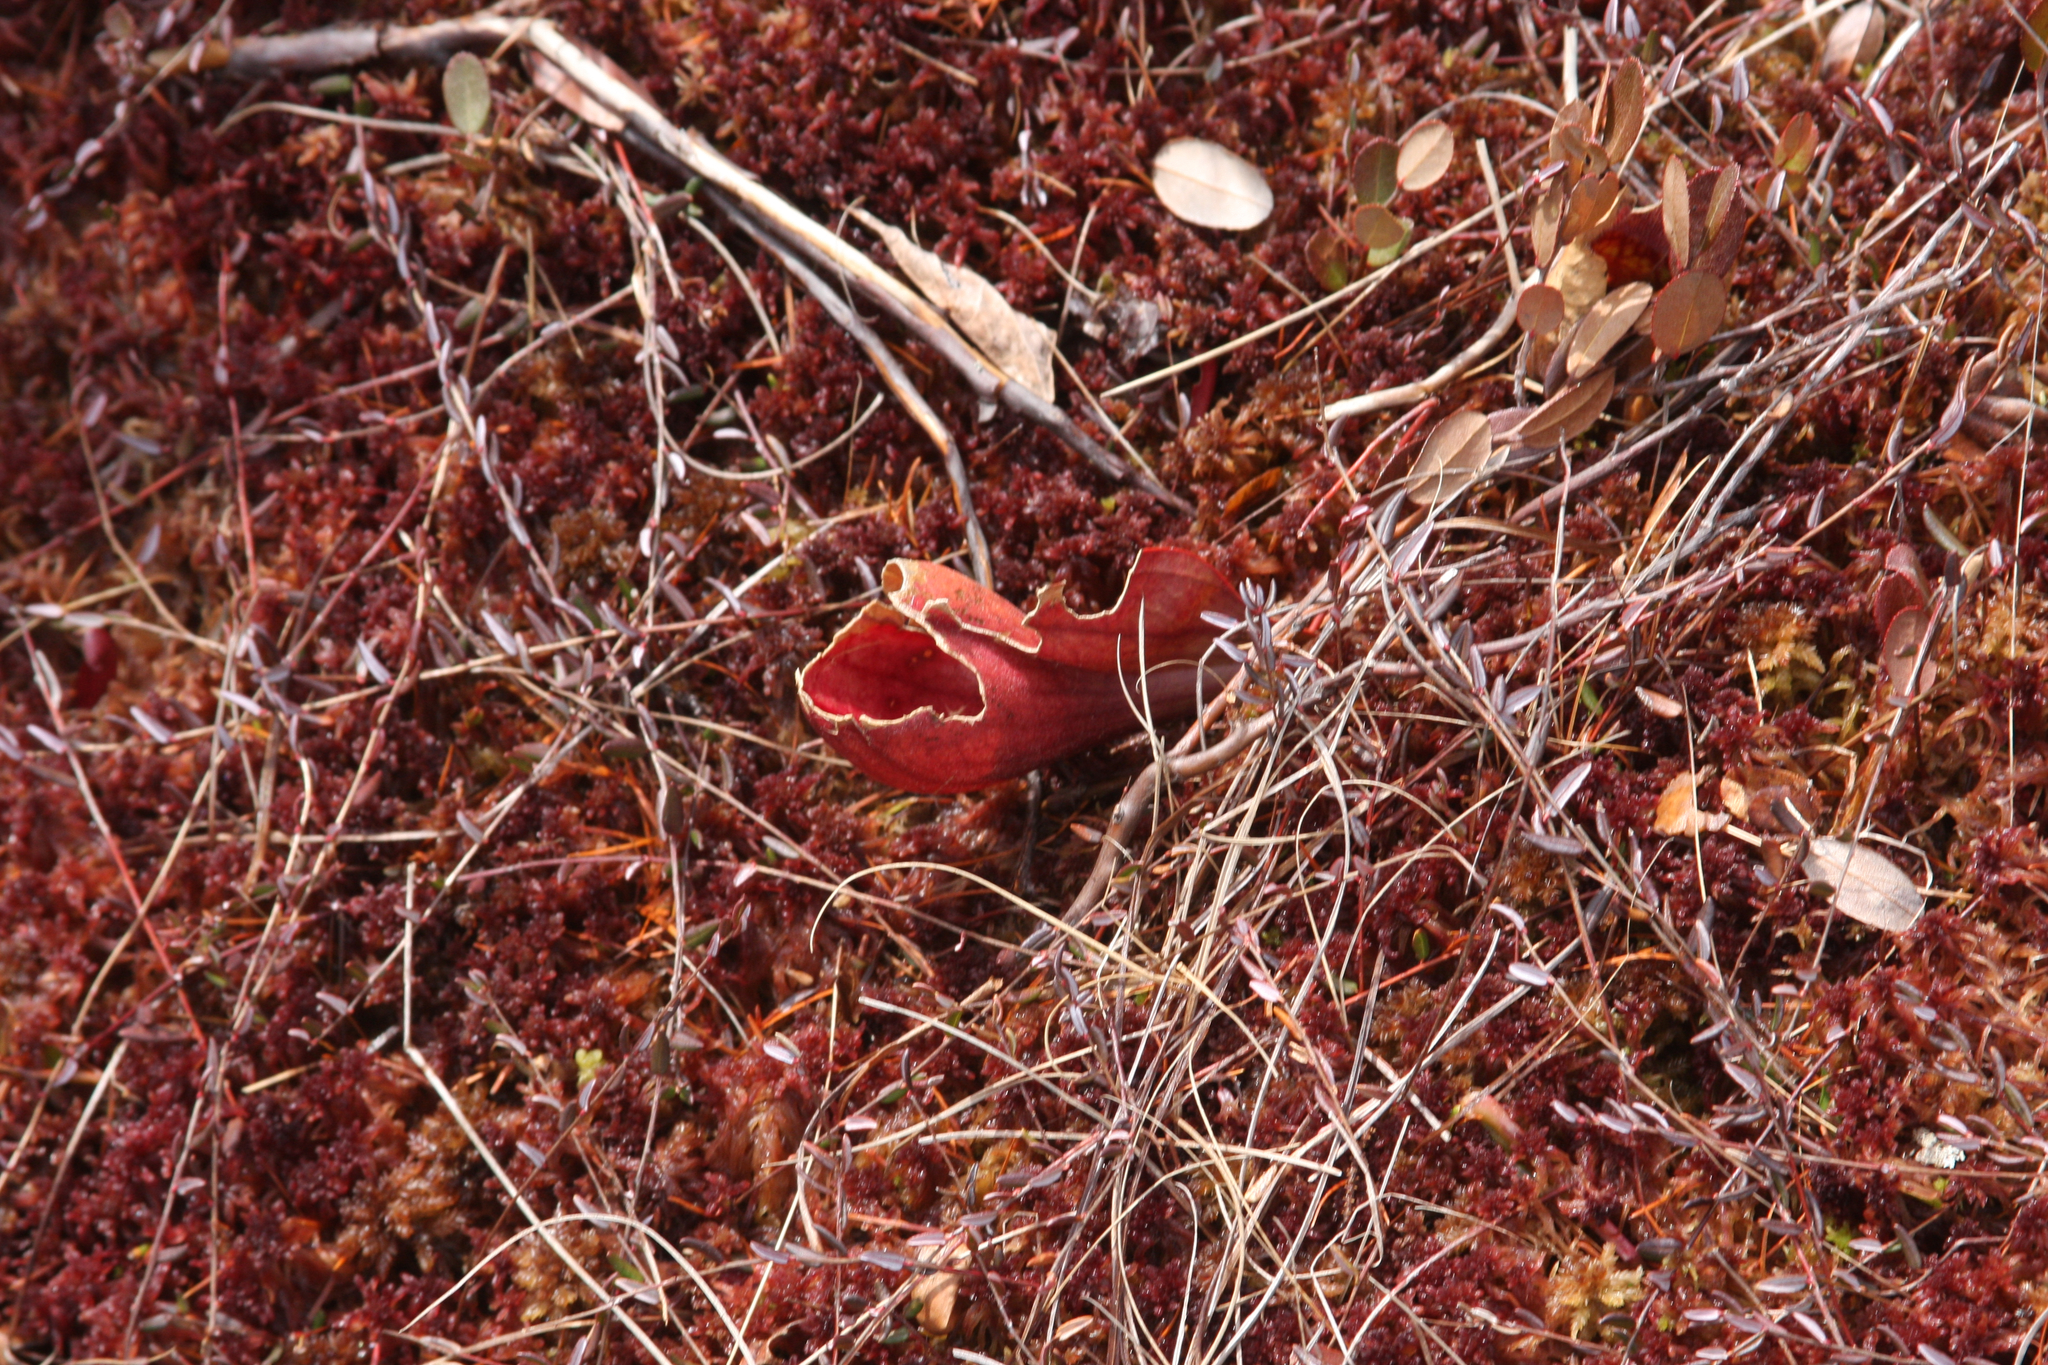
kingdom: Plantae
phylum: Tracheophyta
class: Magnoliopsida
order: Ericales
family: Sarraceniaceae
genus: Sarracenia
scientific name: Sarracenia purpurea
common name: Pitcherplant
